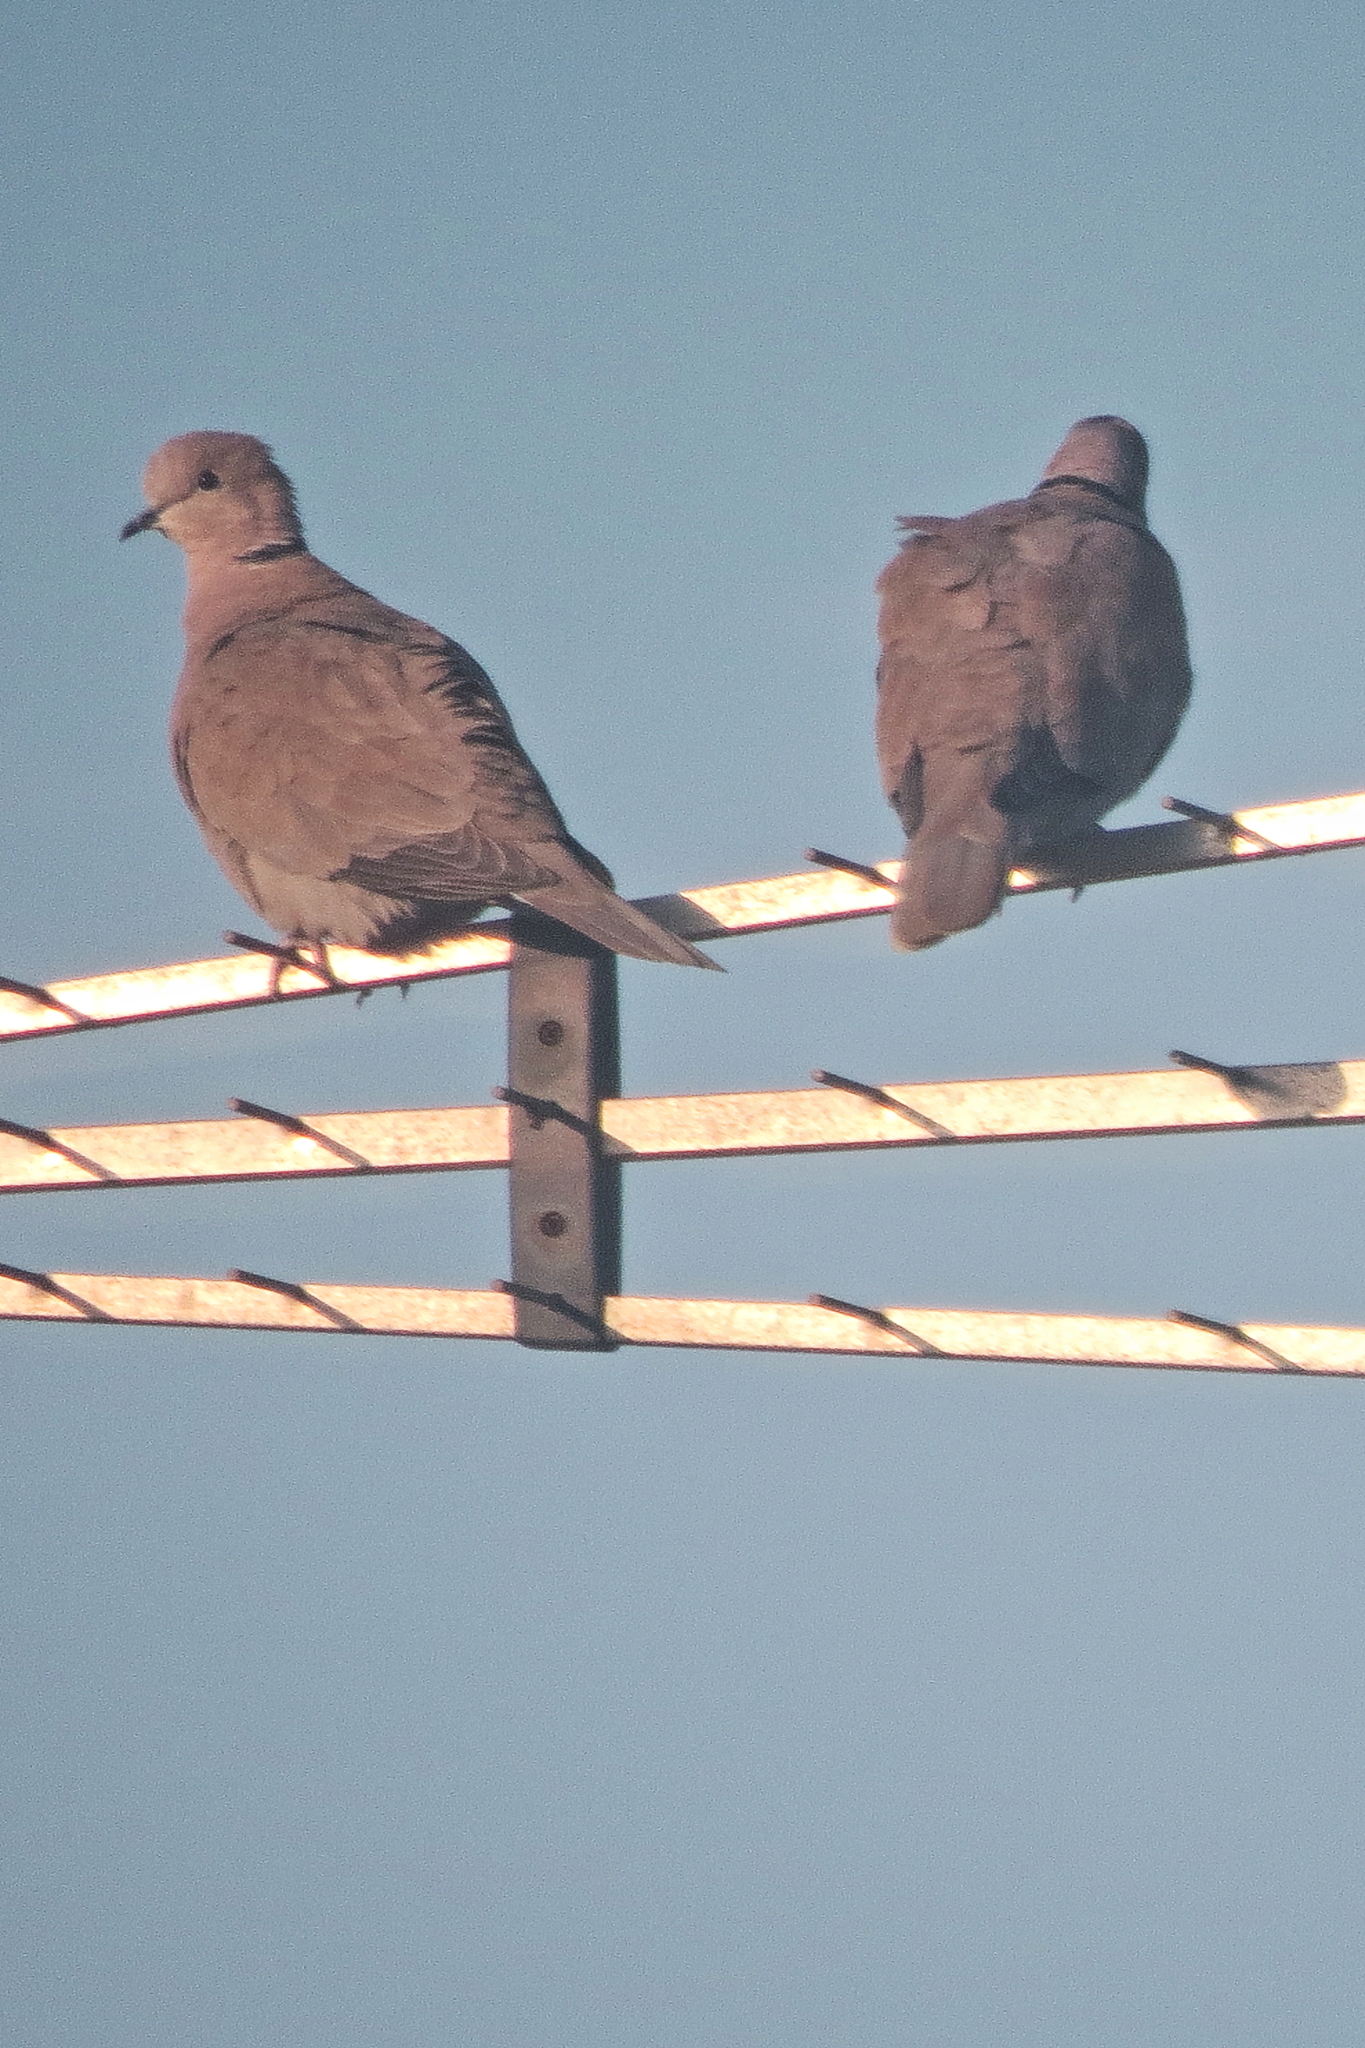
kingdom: Animalia
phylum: Chordata
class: Aves
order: Columbiformes
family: Columbidae
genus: Streptopelia
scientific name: Streptopelia decaocto
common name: Eurasian collared dove
